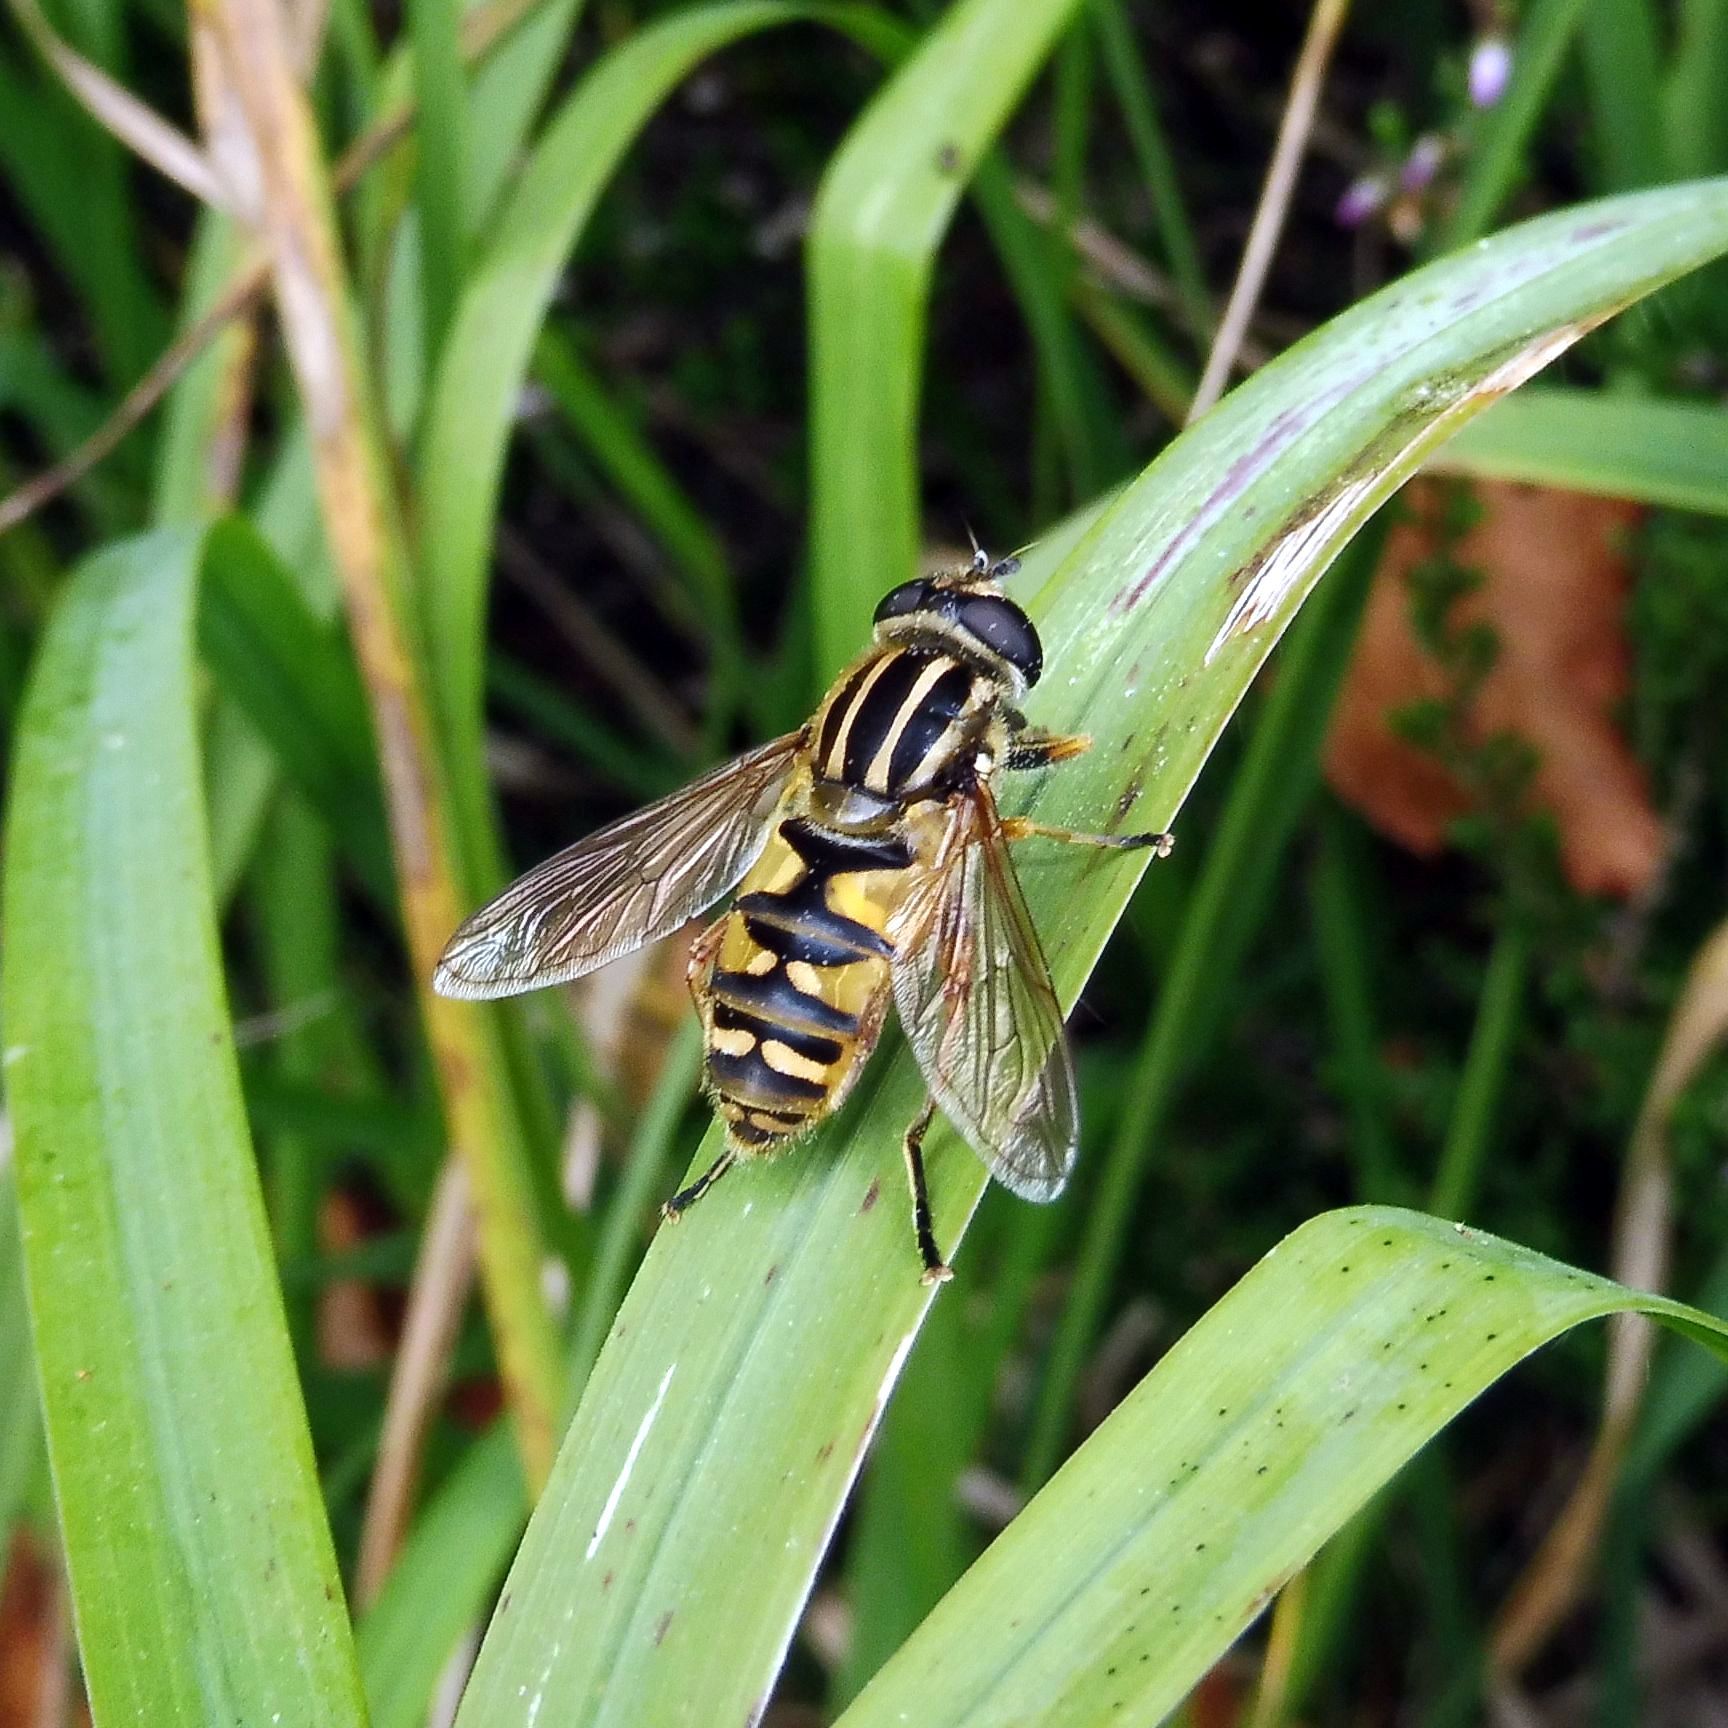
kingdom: Animalia
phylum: Arthropoda
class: Insecta
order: Diptera
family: Syrphidae
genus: Helophilus
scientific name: Helophilus pendulus
